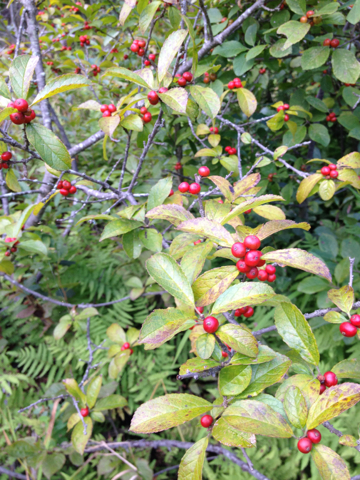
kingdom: Plantae
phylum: Tracheophyta
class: Magnoliopsida
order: Aquifoliales
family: Aquifoliaceae
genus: Ilex
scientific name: Ilex verticillata
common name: Virginia winterberry
